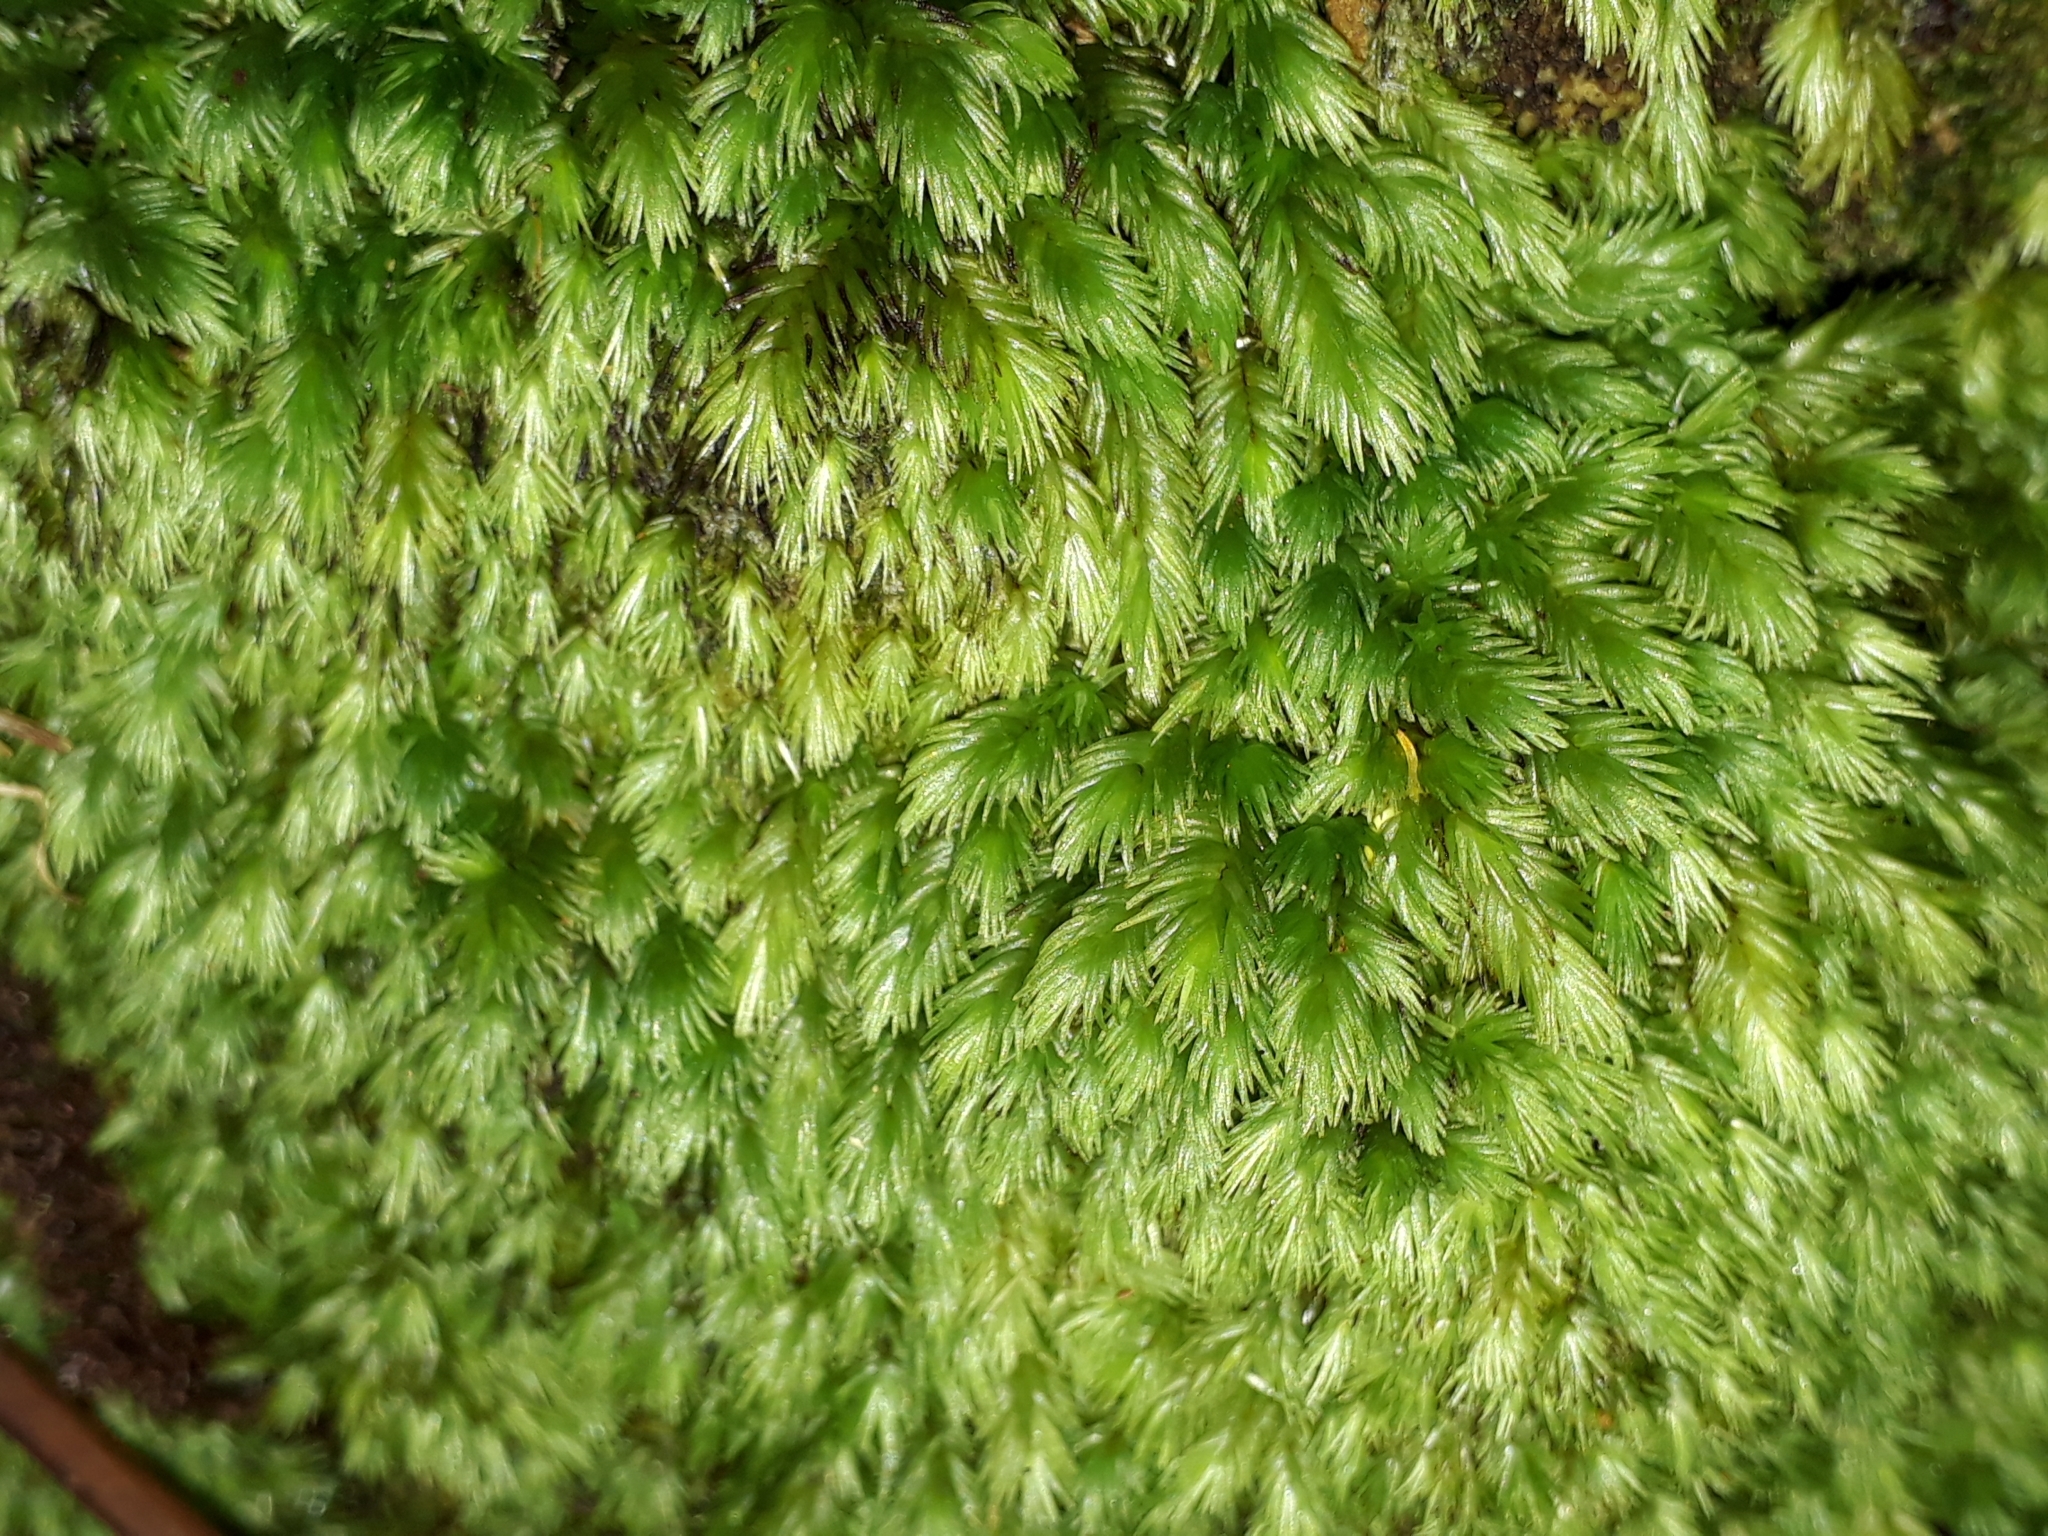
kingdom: Plantae
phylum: Bryophyta
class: Bryopsida
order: Dicranales
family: Leucobryaceae
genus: Leucobryum
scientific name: Leucobryum javense
